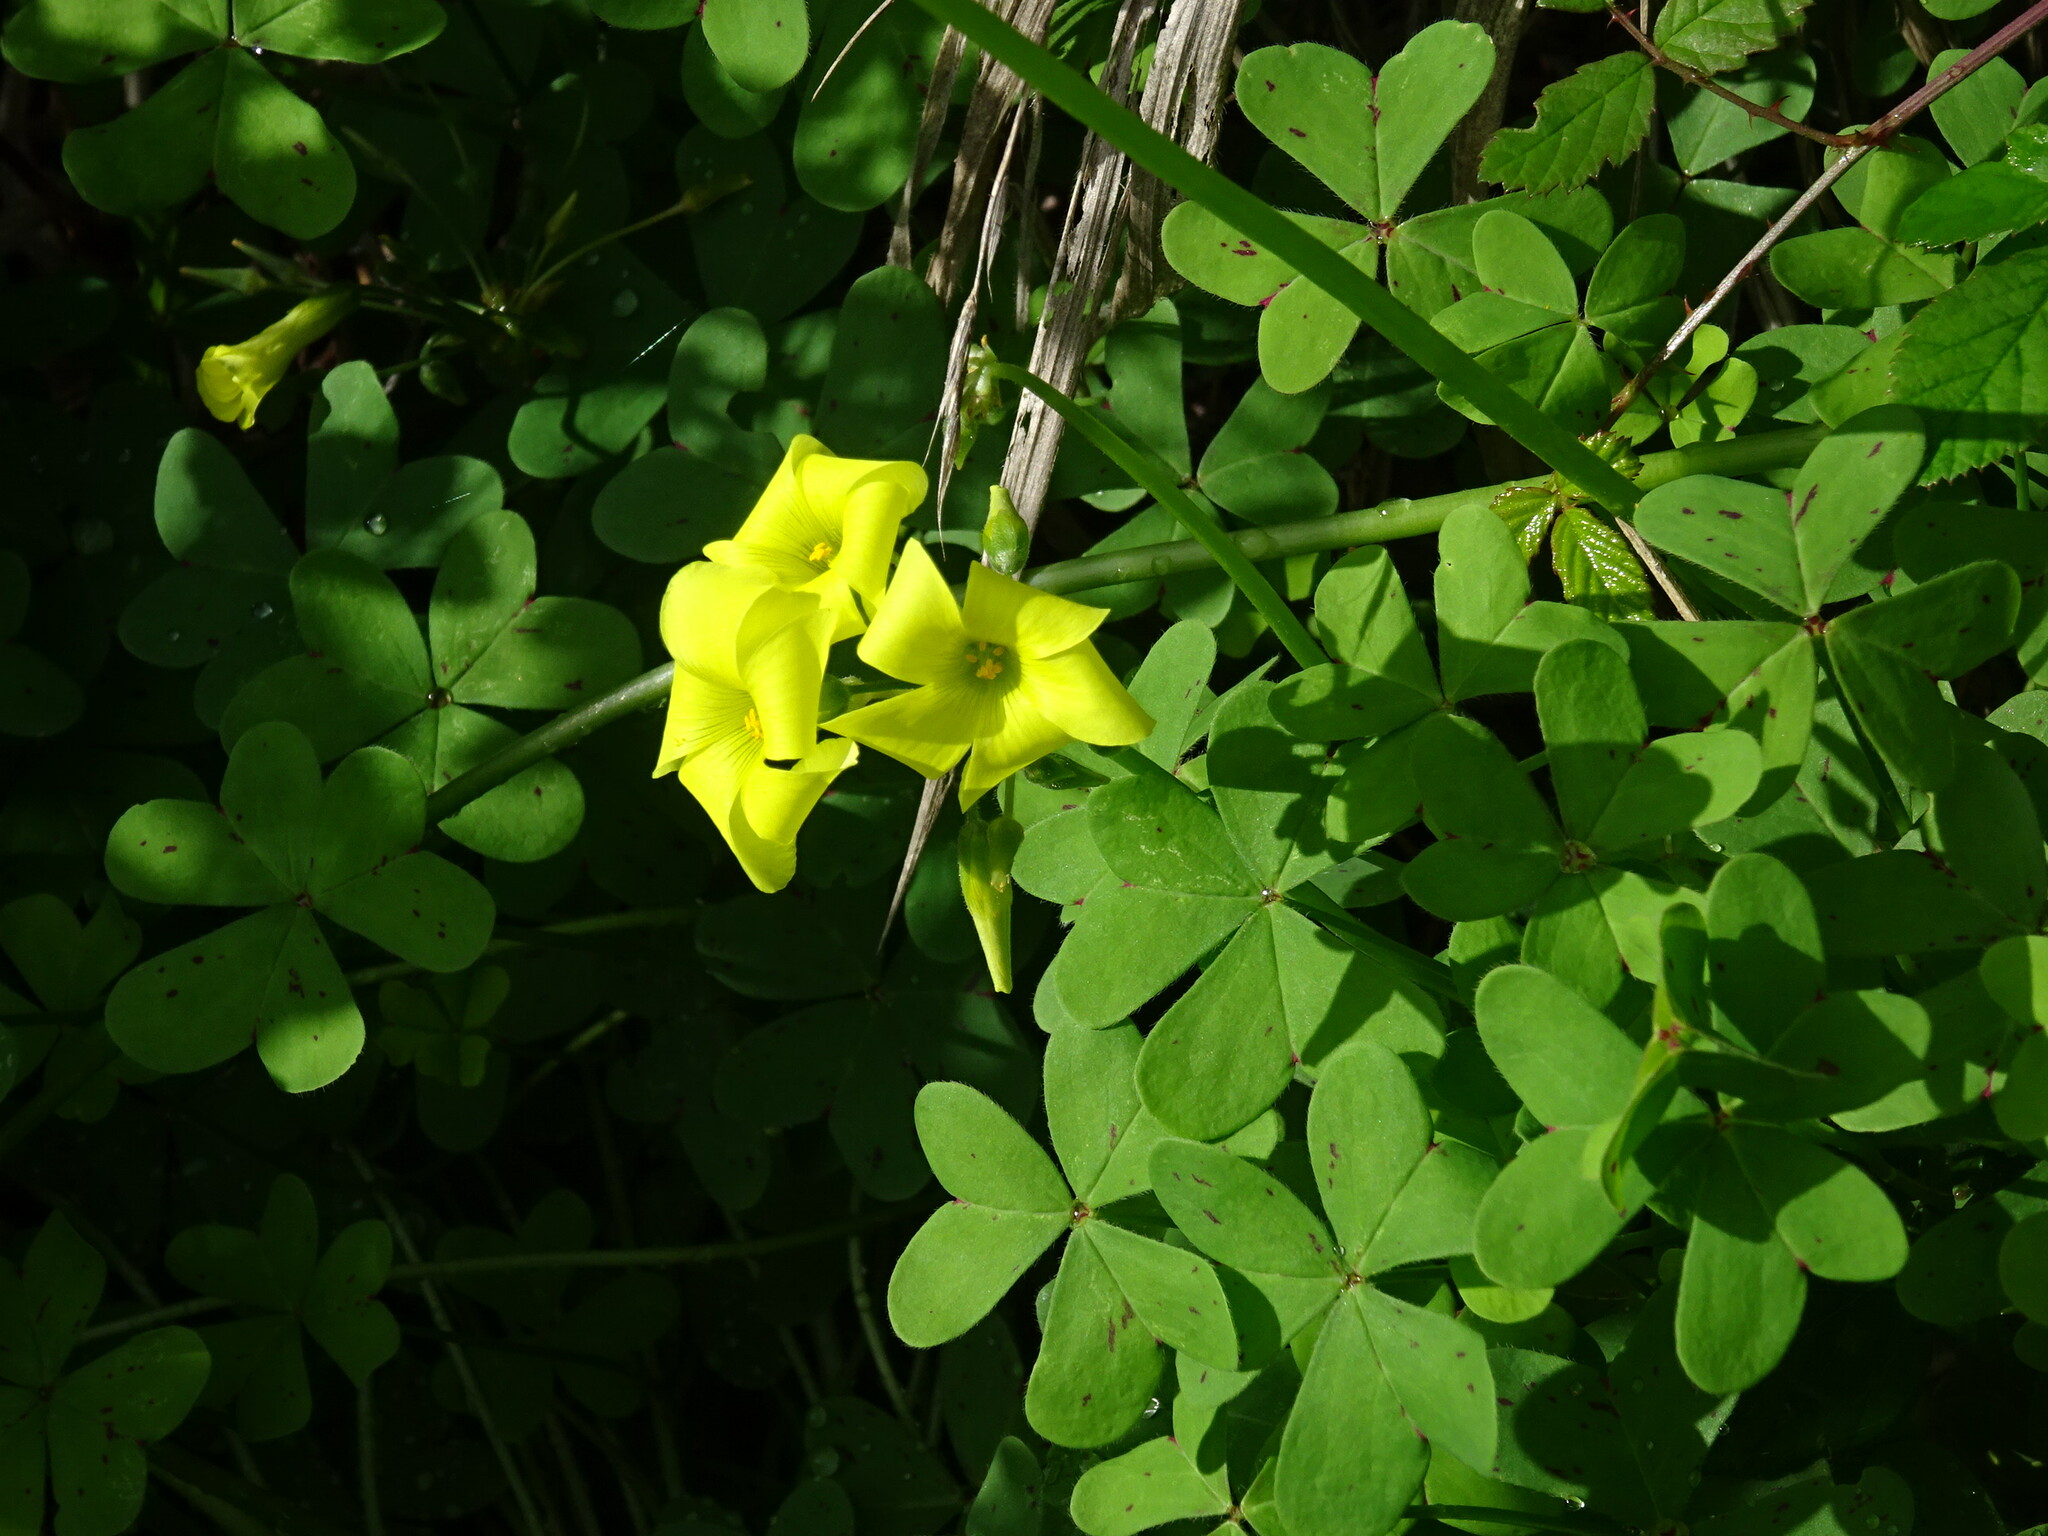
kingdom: Plantae
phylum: Tracheophyta
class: Magnoliopsida
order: Oxalidales
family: Oxalidaceae
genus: Oxalis
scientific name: Oxalis pes-caprae
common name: Bermuda-buttercup
